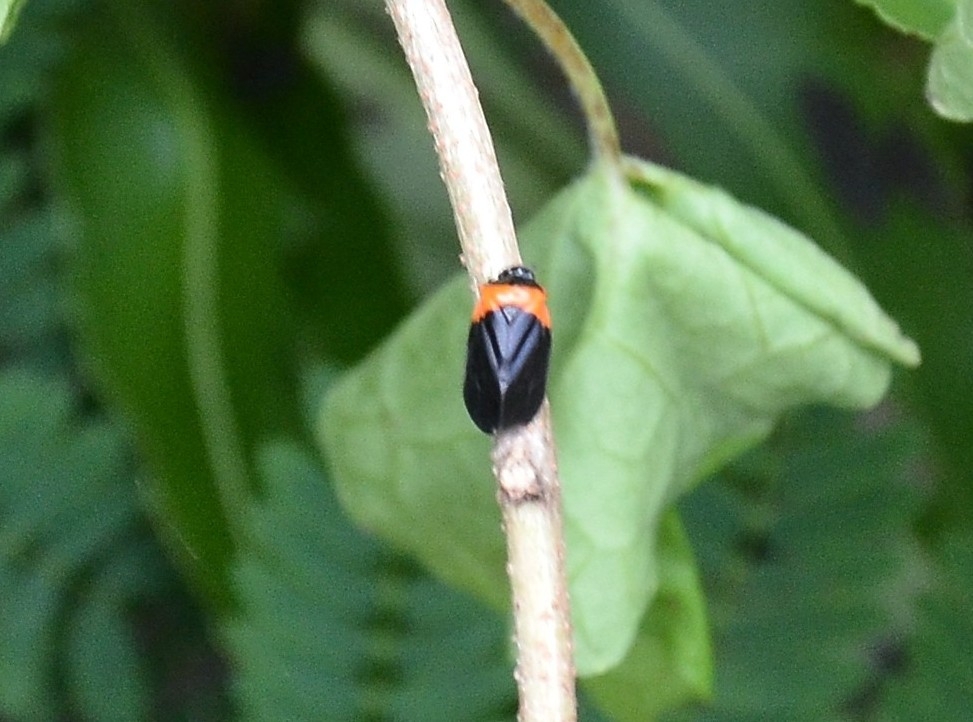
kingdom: Animalia
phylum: Arthropoda
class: Insecta
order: Hemiptera
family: Cercopidae
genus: Phymatostetha
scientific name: Phymatostetha deschampsi
